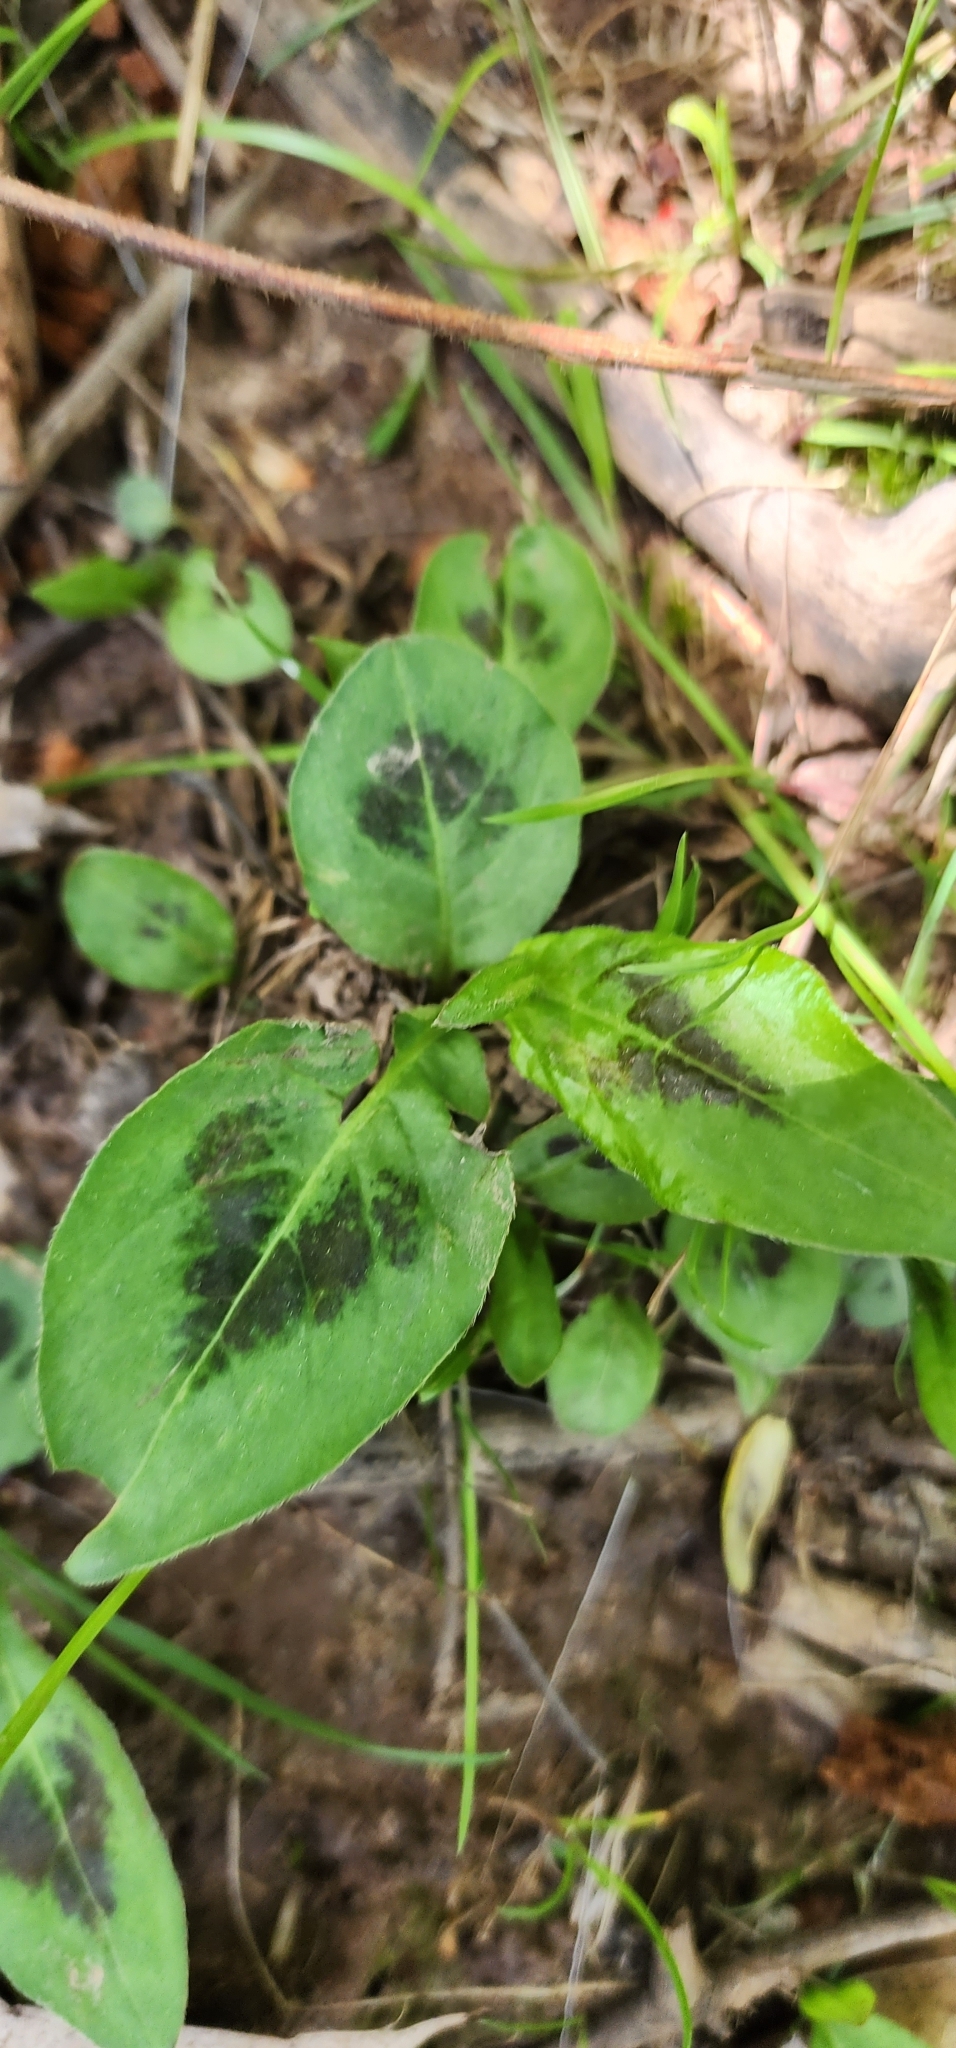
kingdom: Plantae
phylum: Tracheophyta
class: Magnoliopsida
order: Caryophyllales
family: Polygonaceae
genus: Persicaria
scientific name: Persicaria virginiana
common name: Jumpseed
